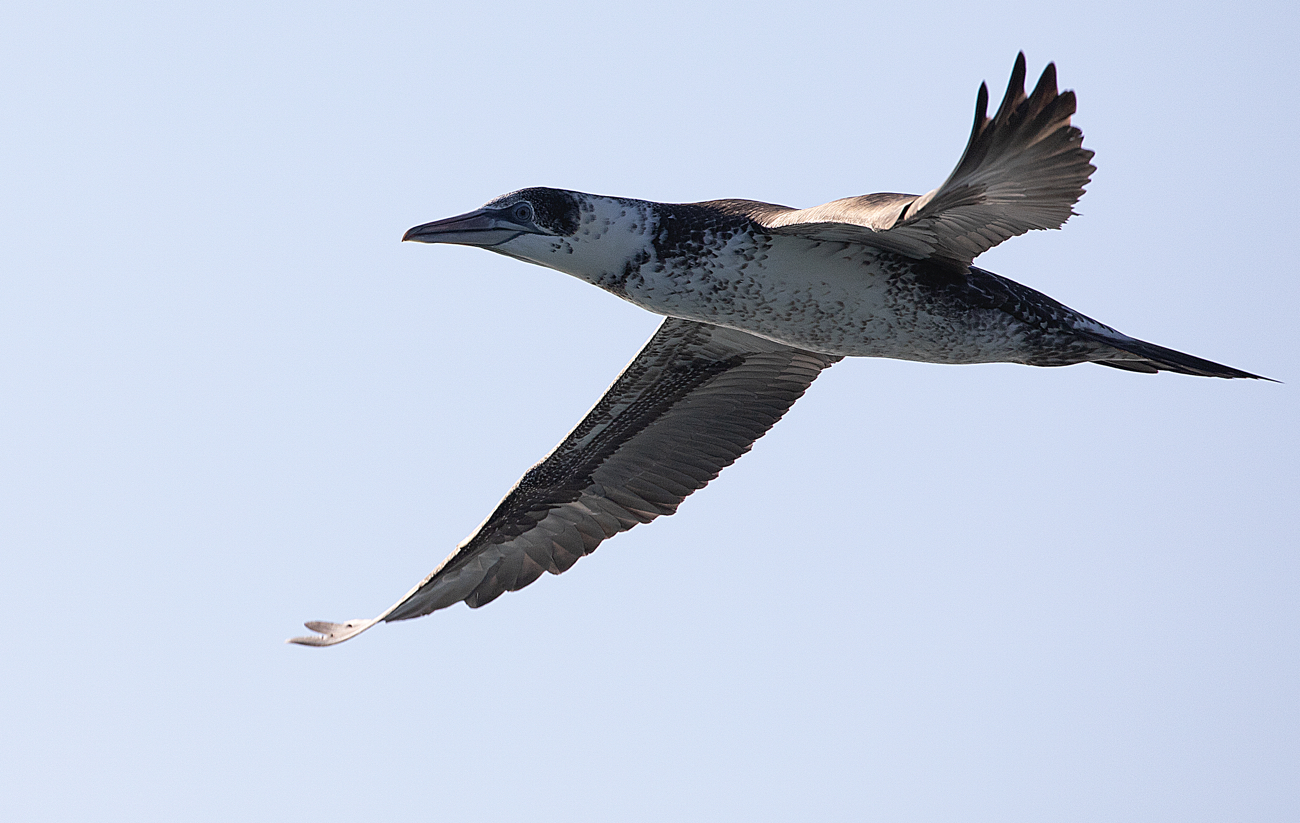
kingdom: Animalia
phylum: Chordata
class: Aves
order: Suliformes
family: Sulidae
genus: Morus
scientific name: Morus bassanus
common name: Northern gannet
